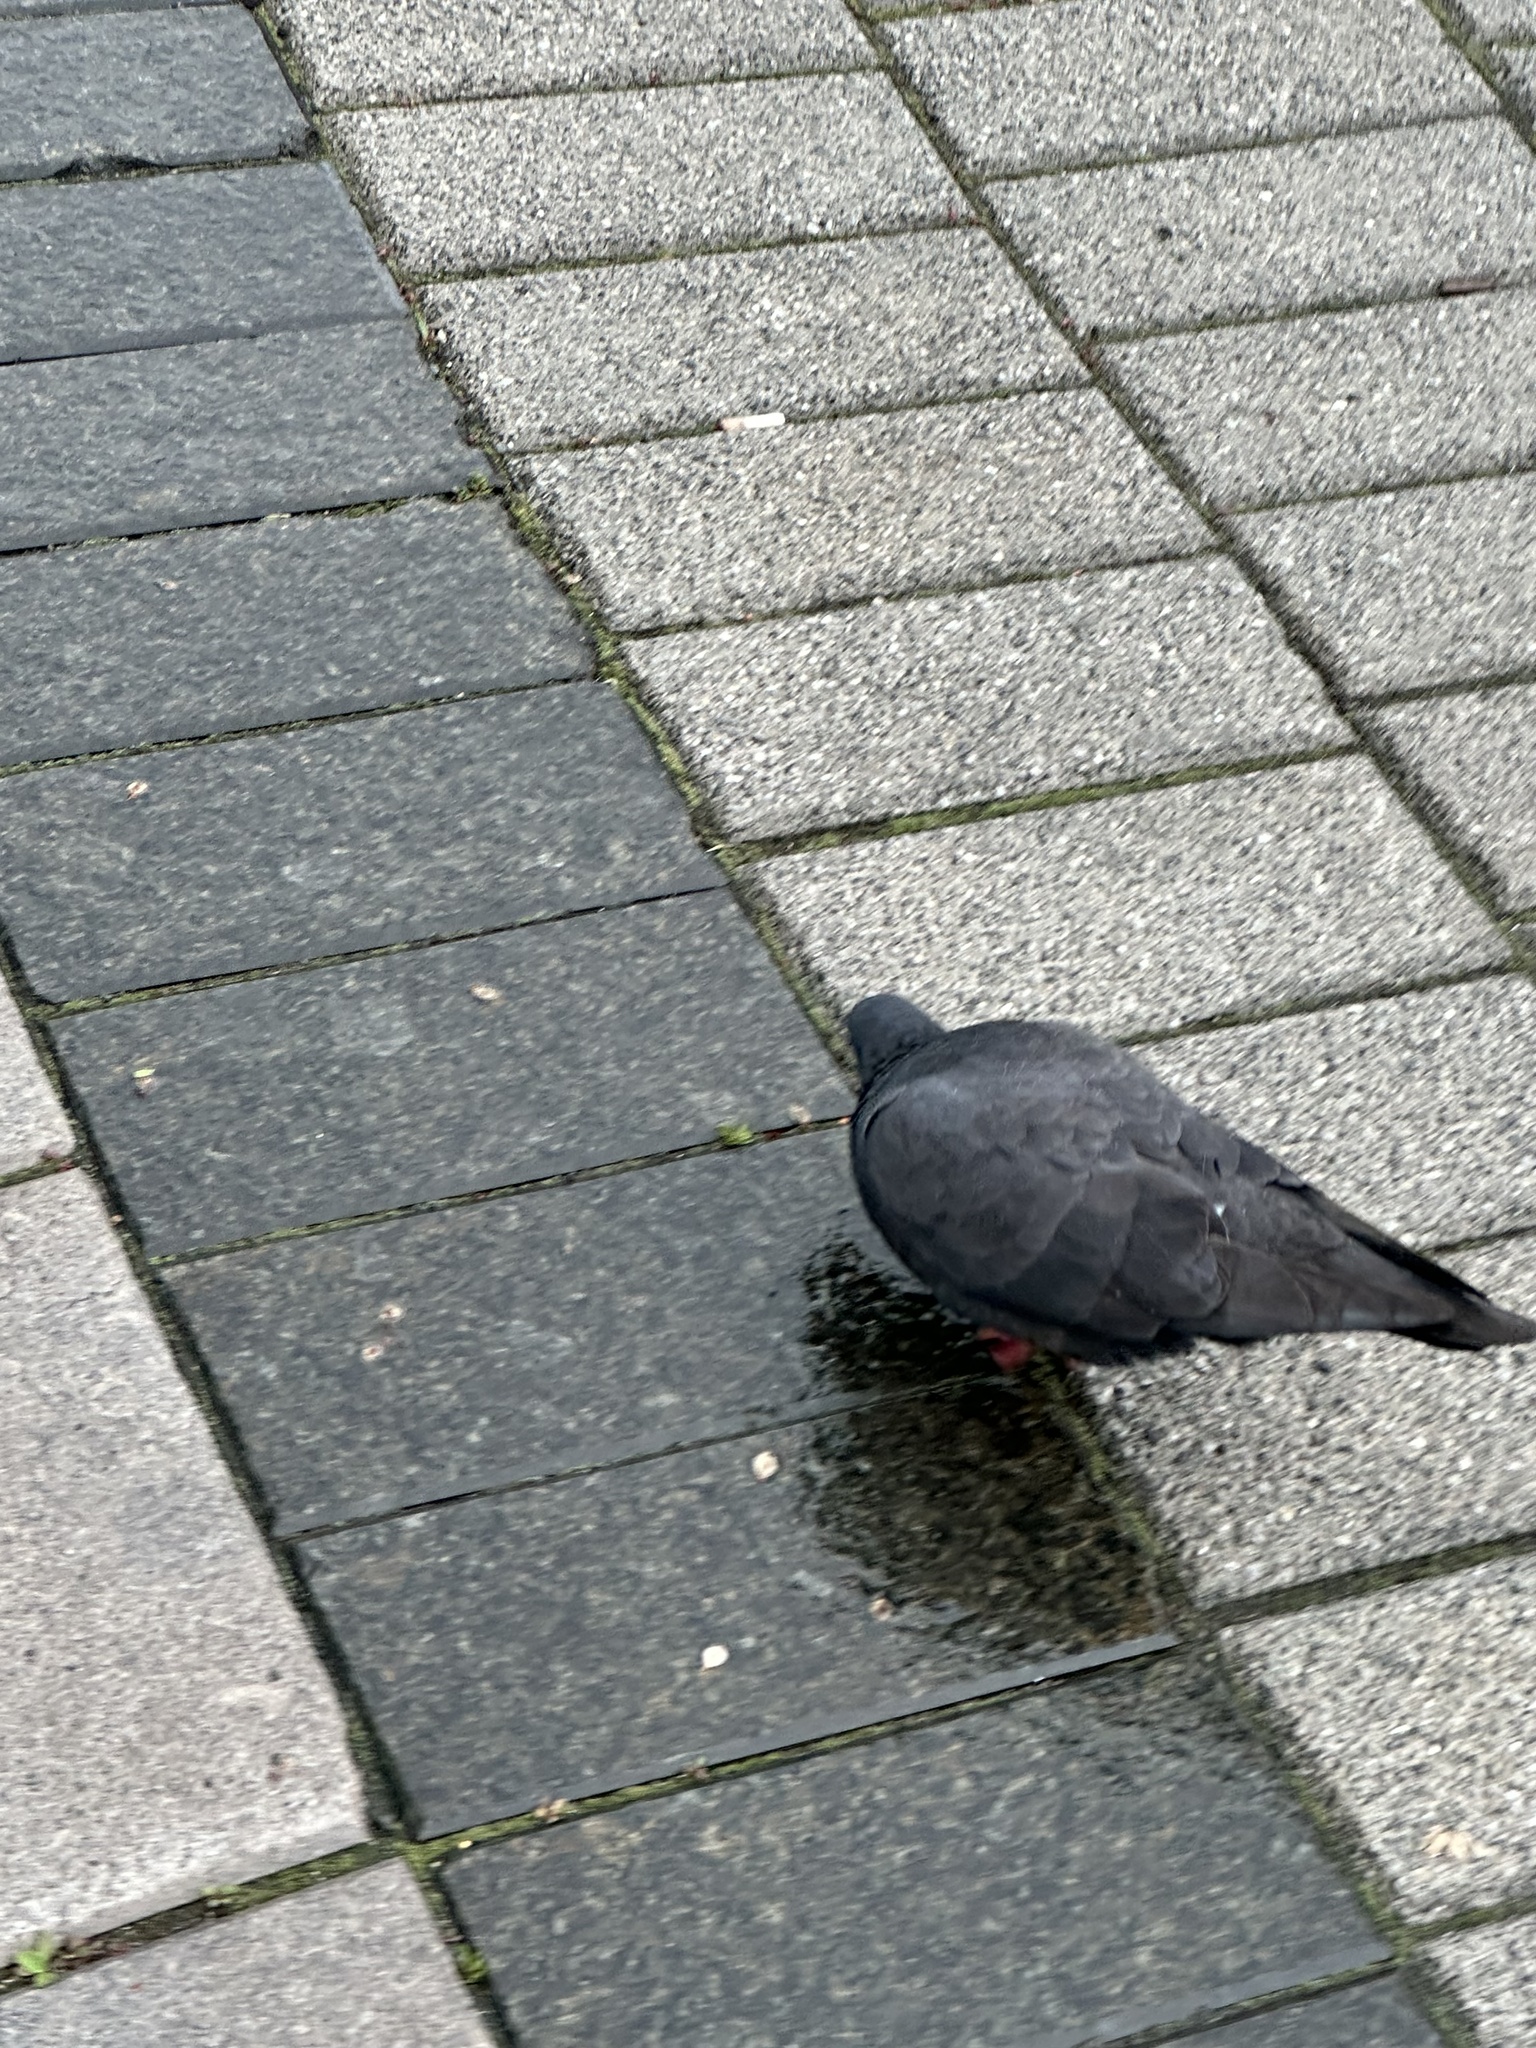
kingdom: Animalia
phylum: Chordata
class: Aves
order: Columbiformes
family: Columbidae
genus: Columba
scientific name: Columba livia
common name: Rock pigeon
